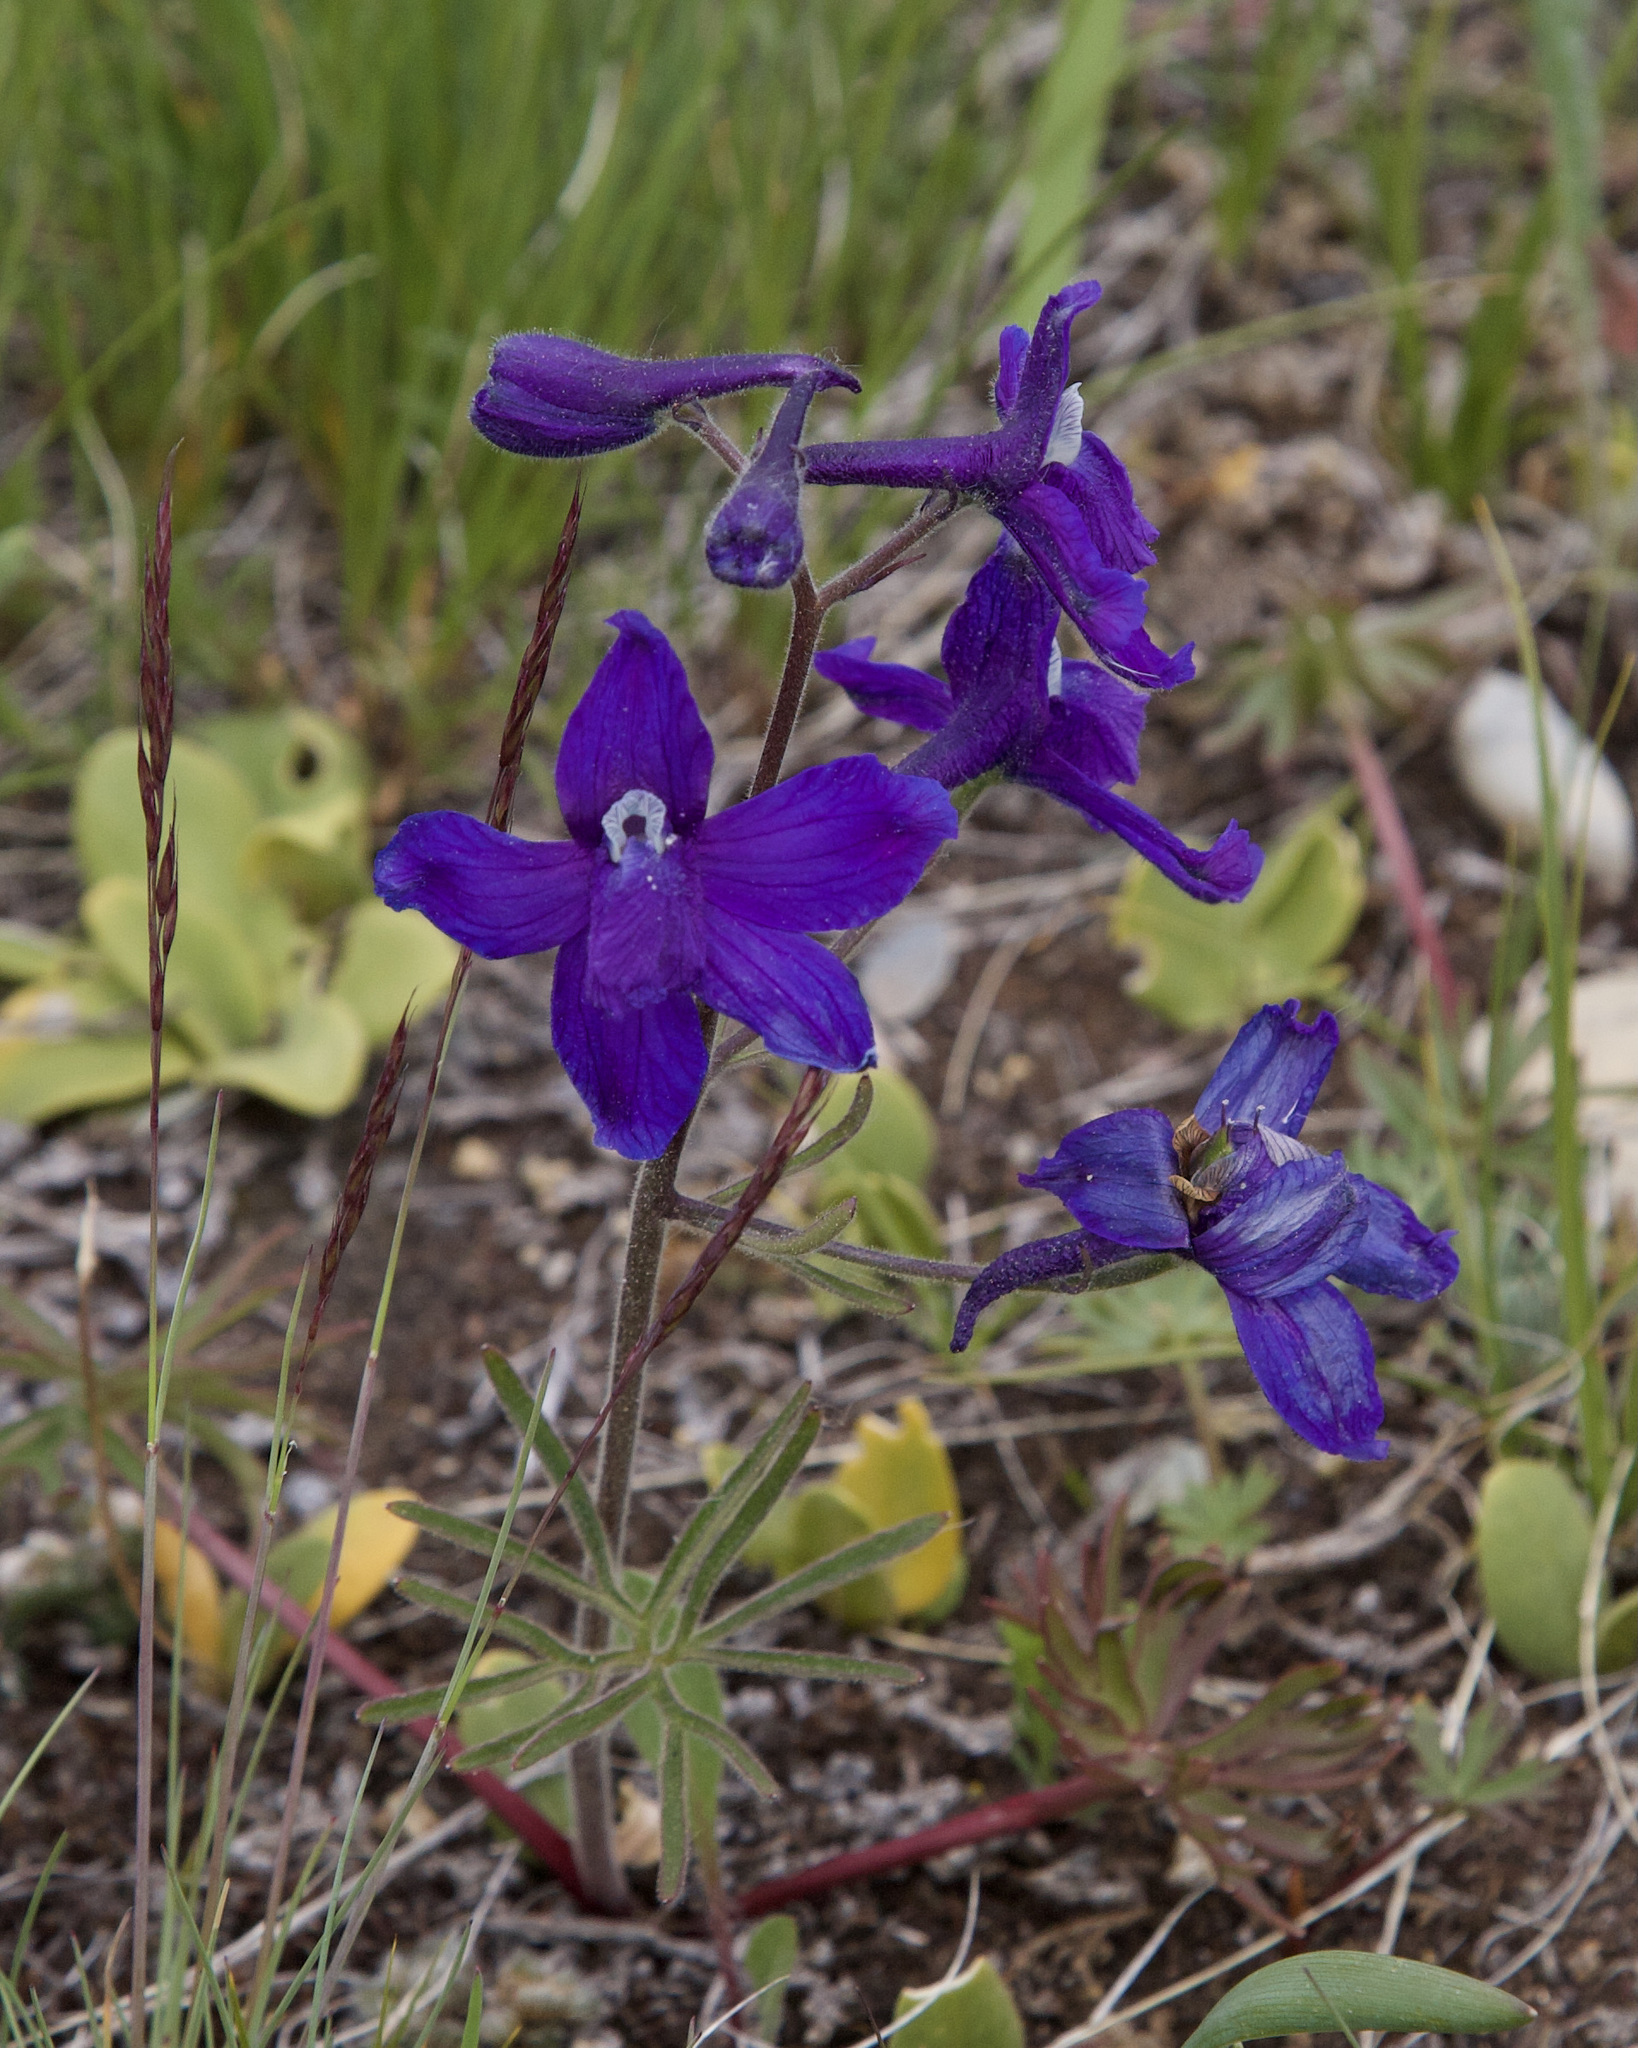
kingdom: Plantae
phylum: Tracheophyta
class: Magnoliopsida
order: Ranunculales
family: Ranunculaceae
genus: Delphinium
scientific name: Delphinium bicolor
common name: Low larkspur
